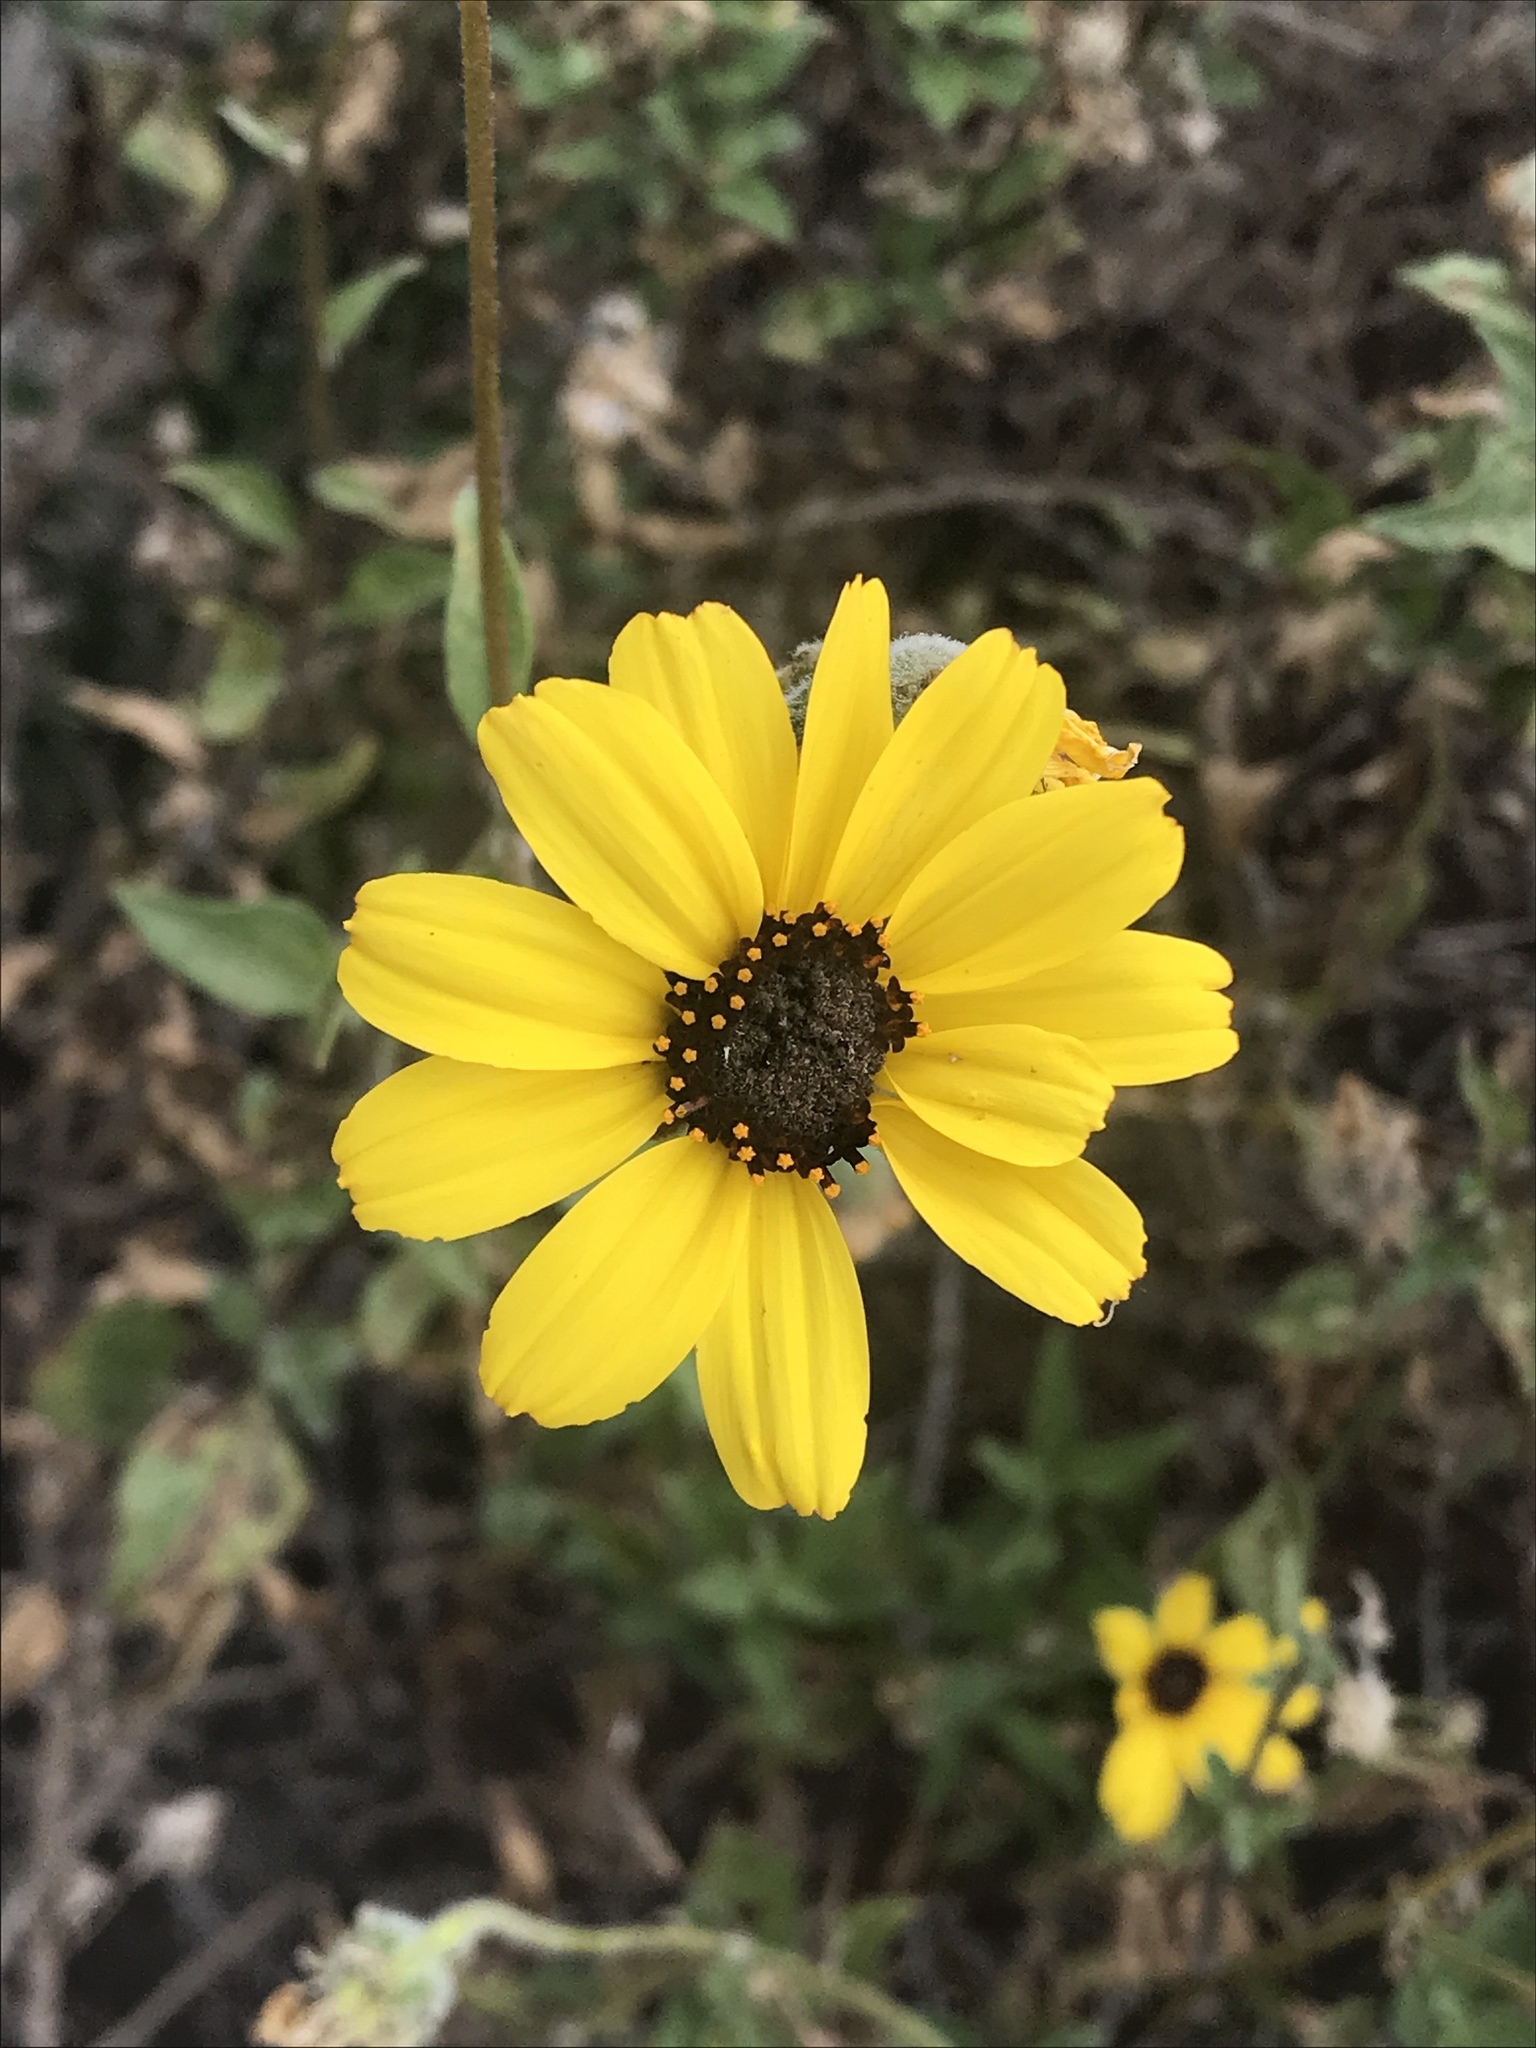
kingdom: Plantae
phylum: Tracheophyta
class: Magnoliopsida
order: Asterales
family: Asteraceae
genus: Encelia
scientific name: Encelia californica
